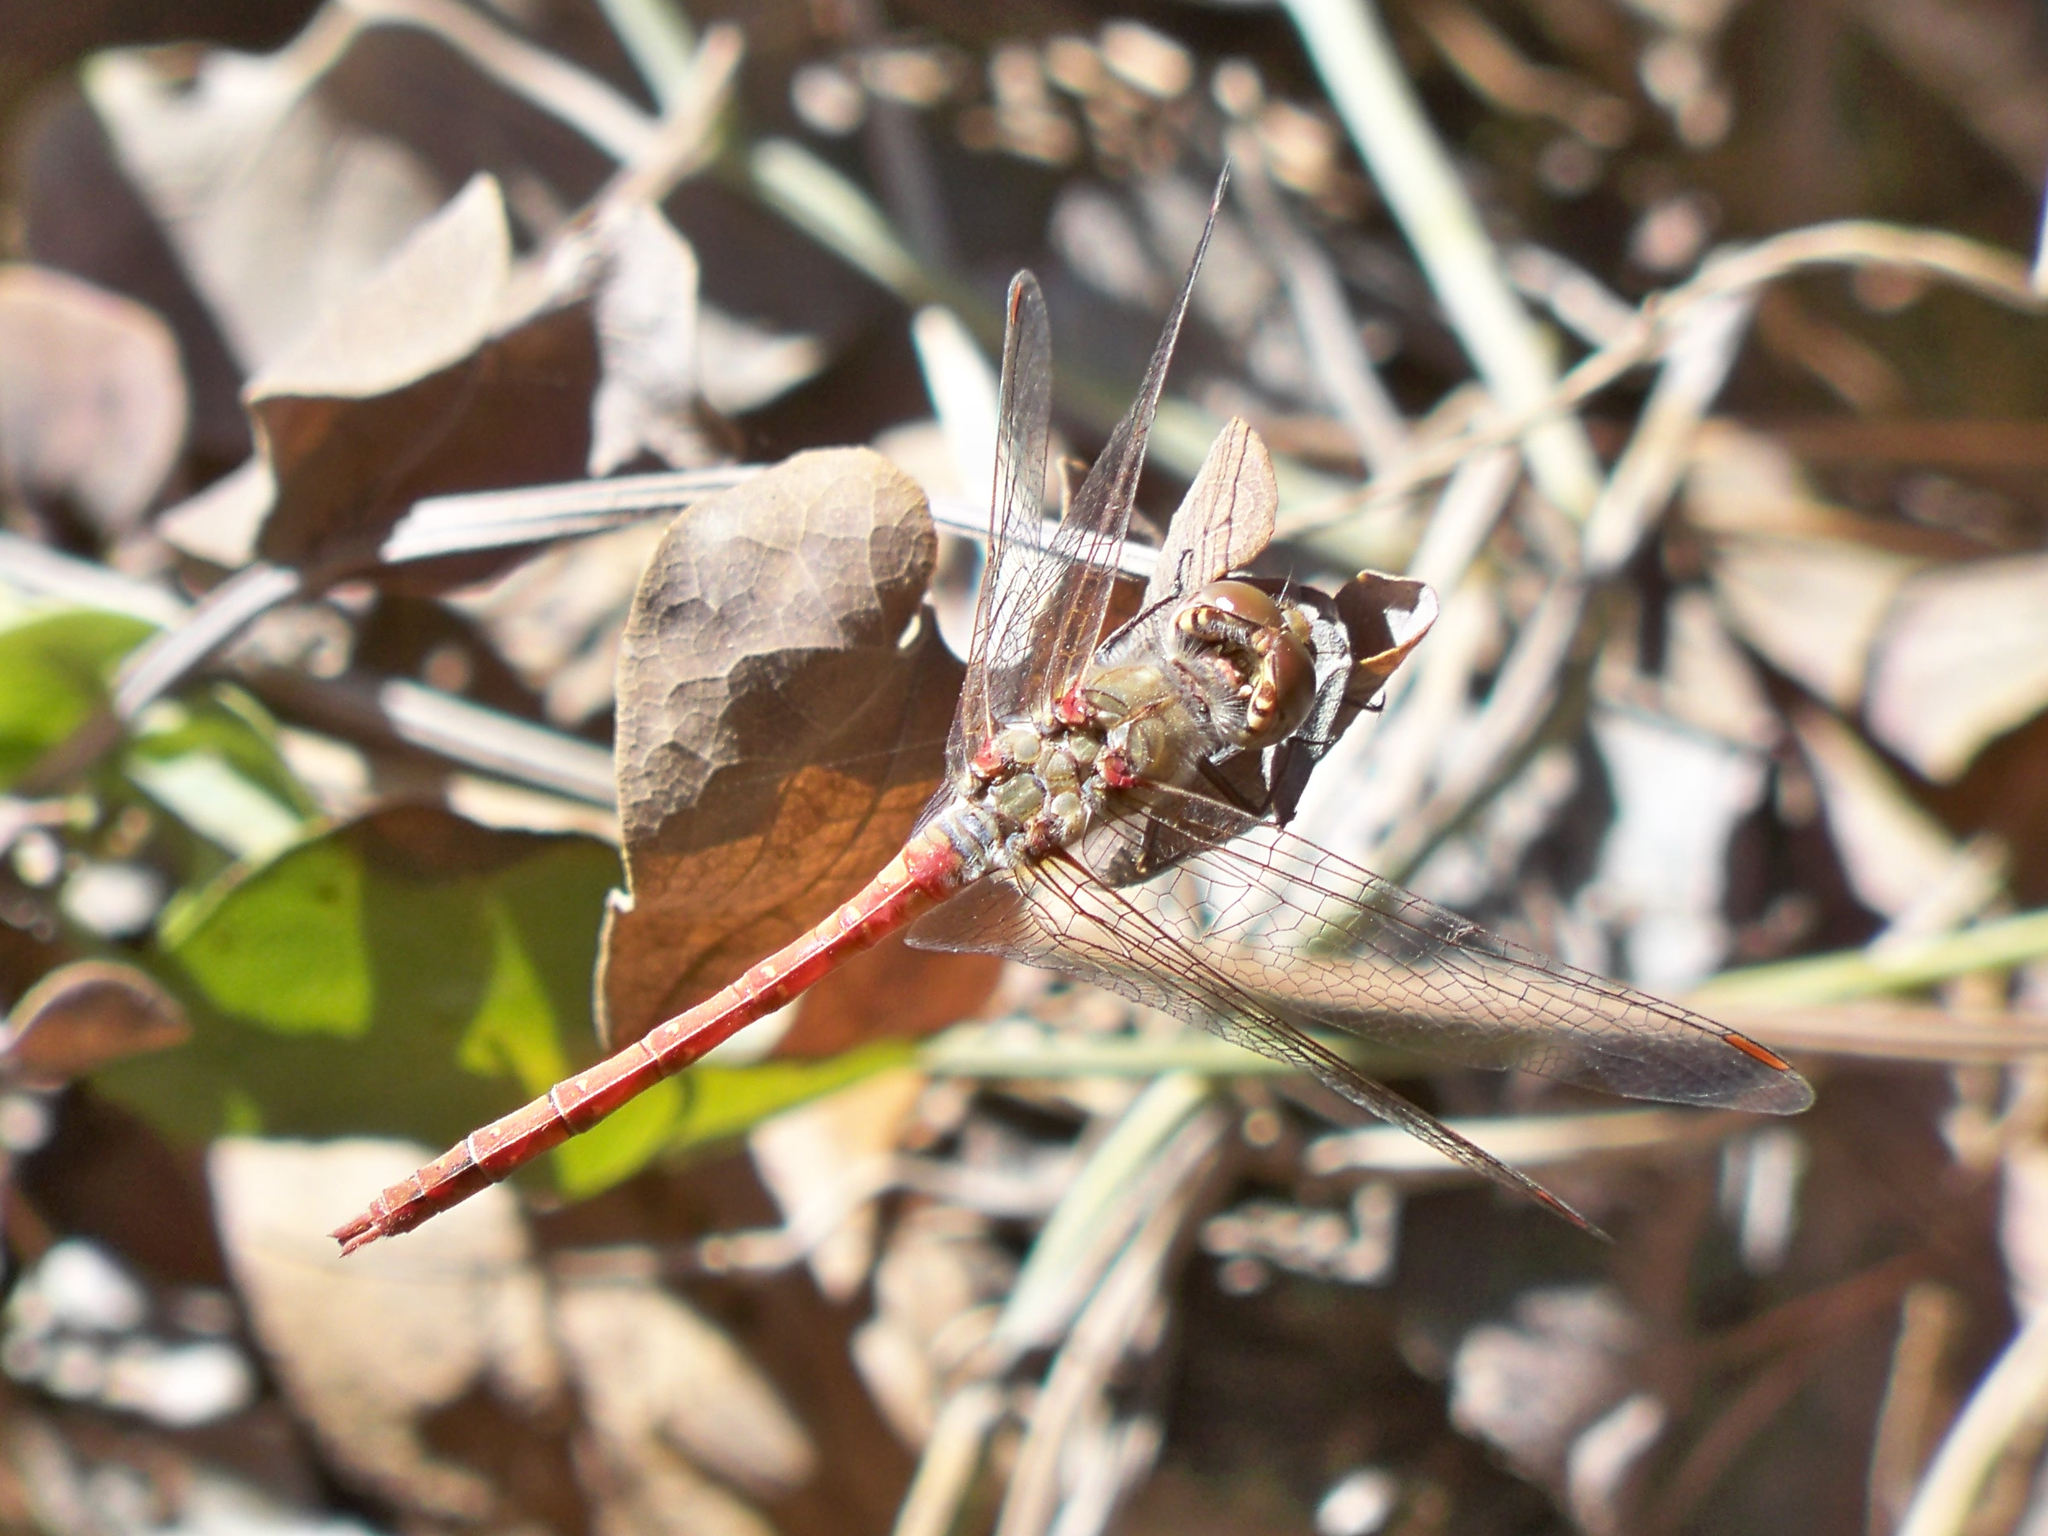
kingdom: Animalia
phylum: Arthropoda
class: Insecta
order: Odonata
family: Libellulidae
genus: Sympetrum
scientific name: Sympetrum striolatum
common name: Common darter
